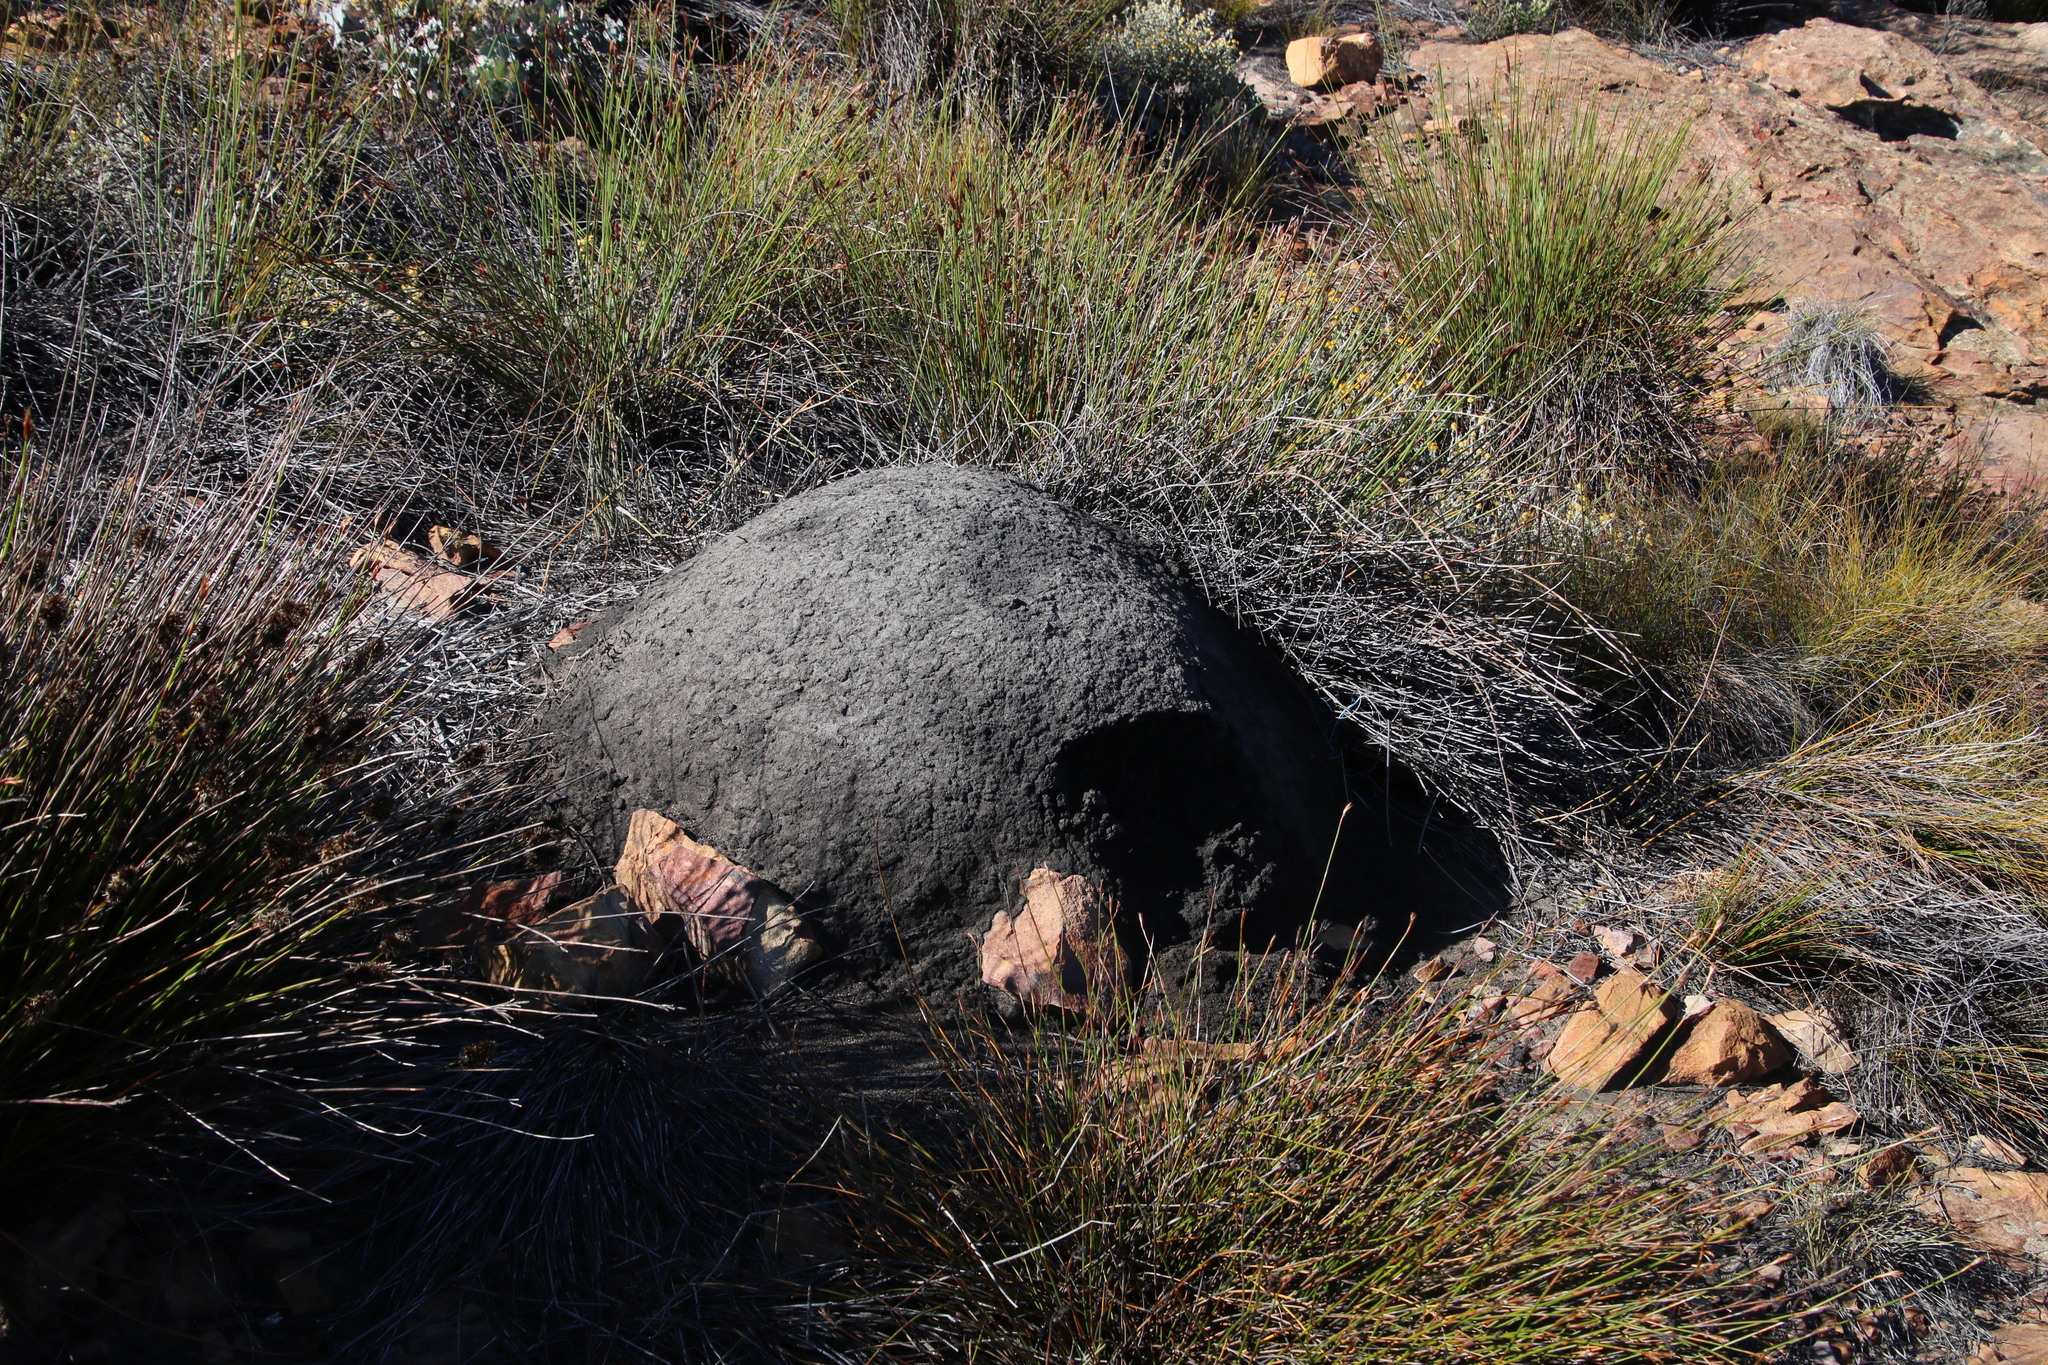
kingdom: Animalia
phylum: Arthropoda
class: Insecta
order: Blattodea
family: Termitidae
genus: Amitermes
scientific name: Amitermes hastatus
